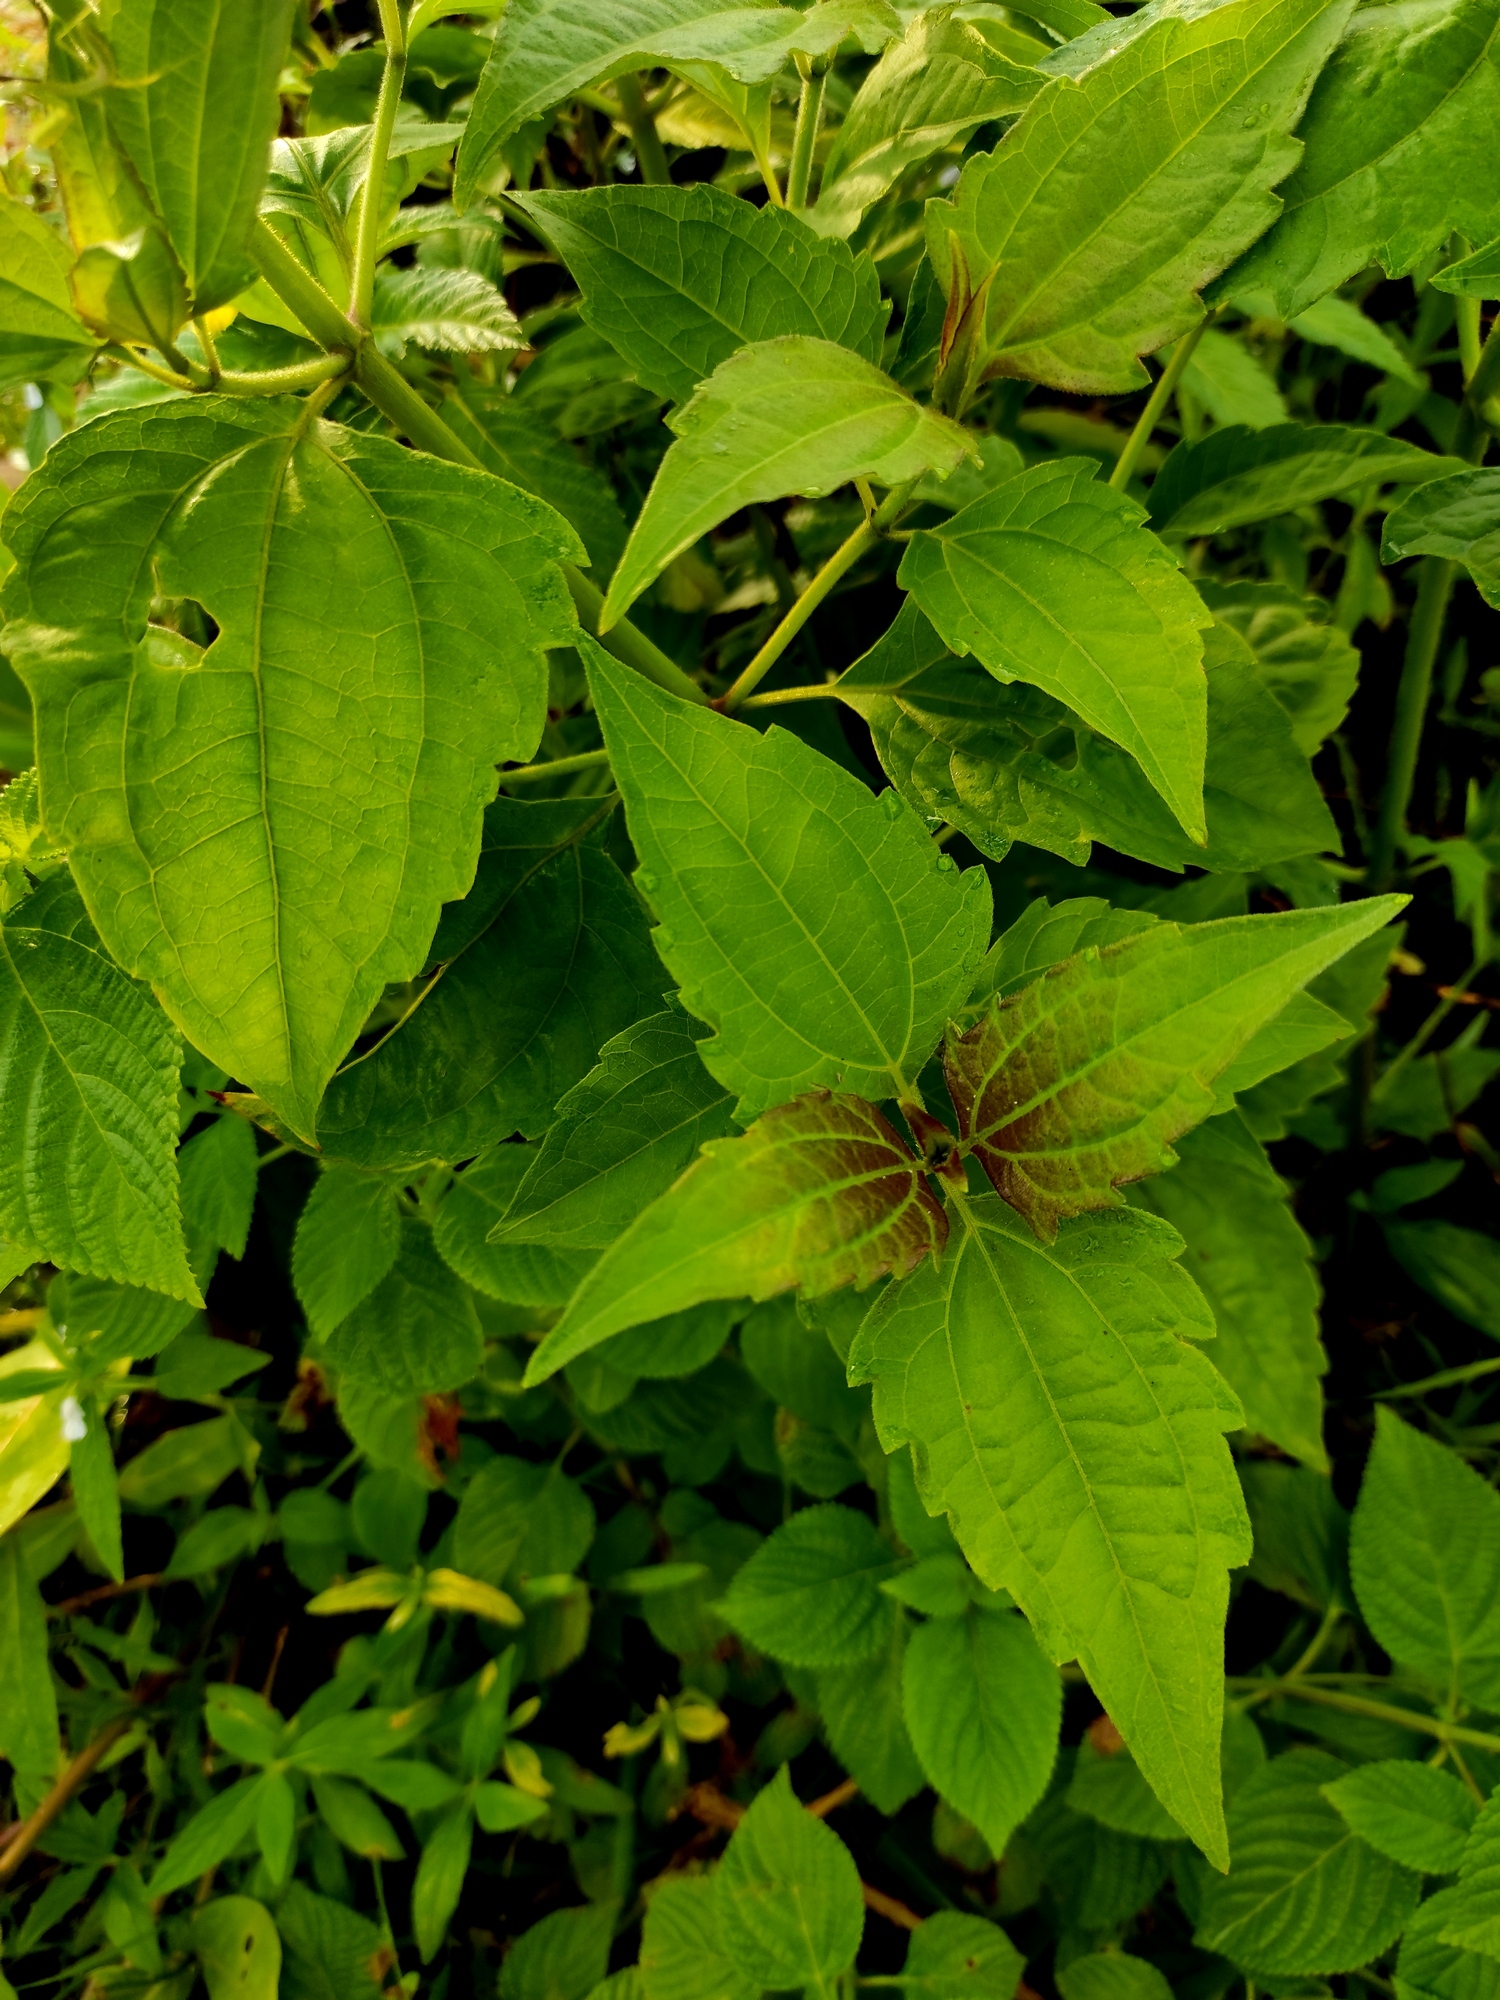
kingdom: Plantae
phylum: Tracheophyta
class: Magnoliopsida
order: Asterales
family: Asteraceae
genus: Chromolaena
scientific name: Chromolaena odorata
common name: Siamweed
